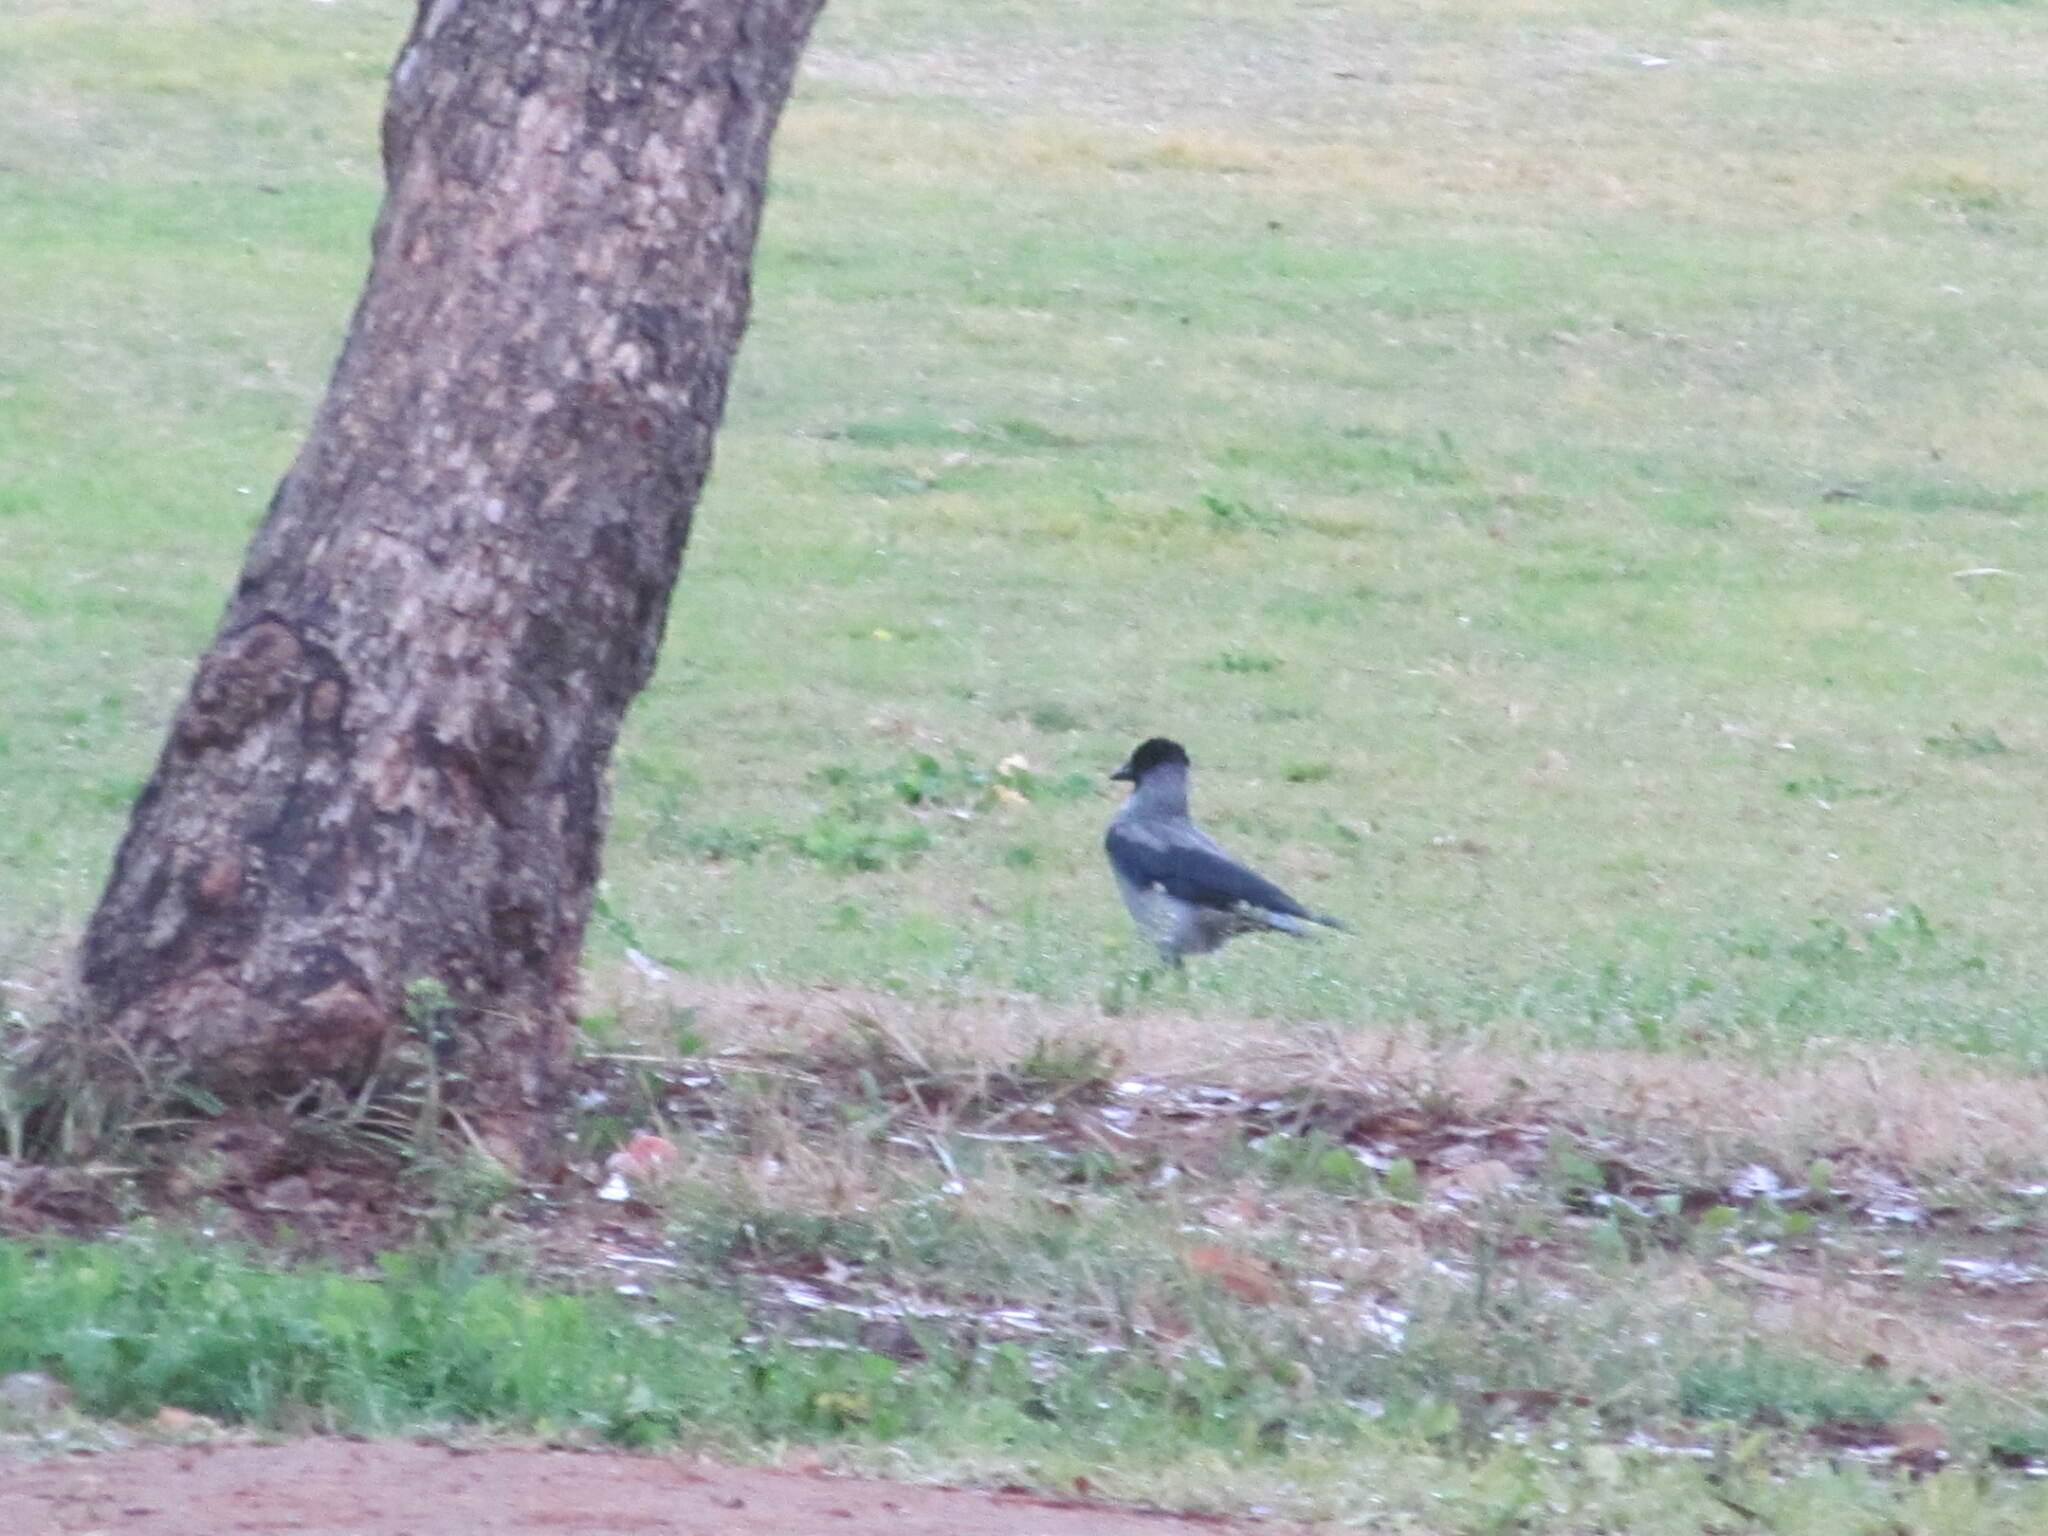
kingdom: Animalia
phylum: Chordata
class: Aves
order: Passeriformes
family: Corvidae
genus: Corvus
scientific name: Corvus cornix
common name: Hooded crow
